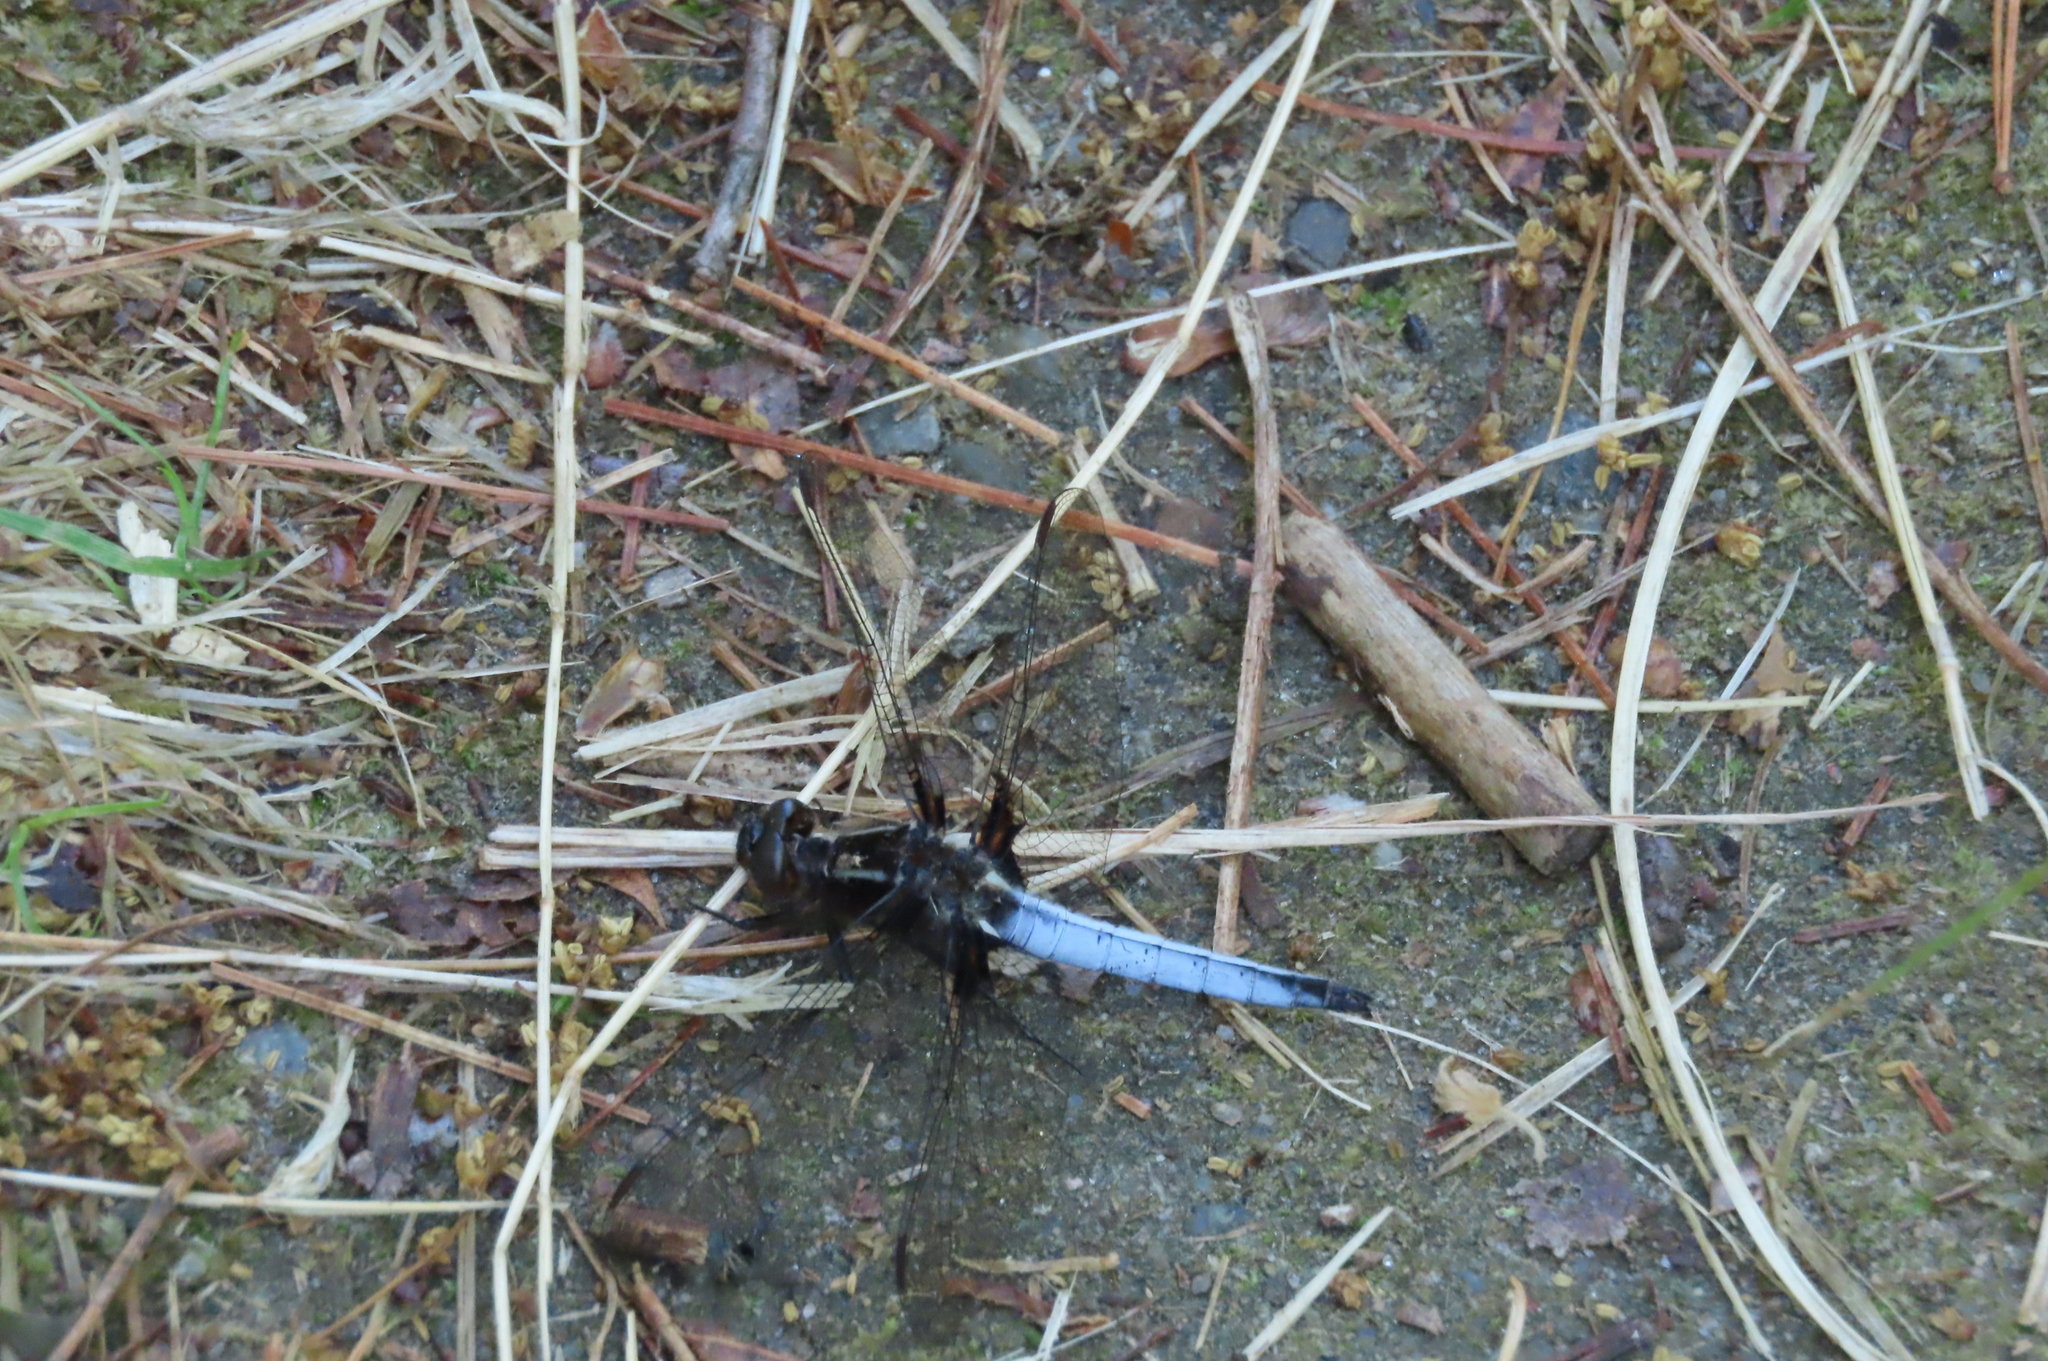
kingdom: Animalia
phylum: Arthropoda
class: Insecta
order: Odonata
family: Libellulidae
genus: Ladona
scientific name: Ladona exusta
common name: Libellule embrasée
